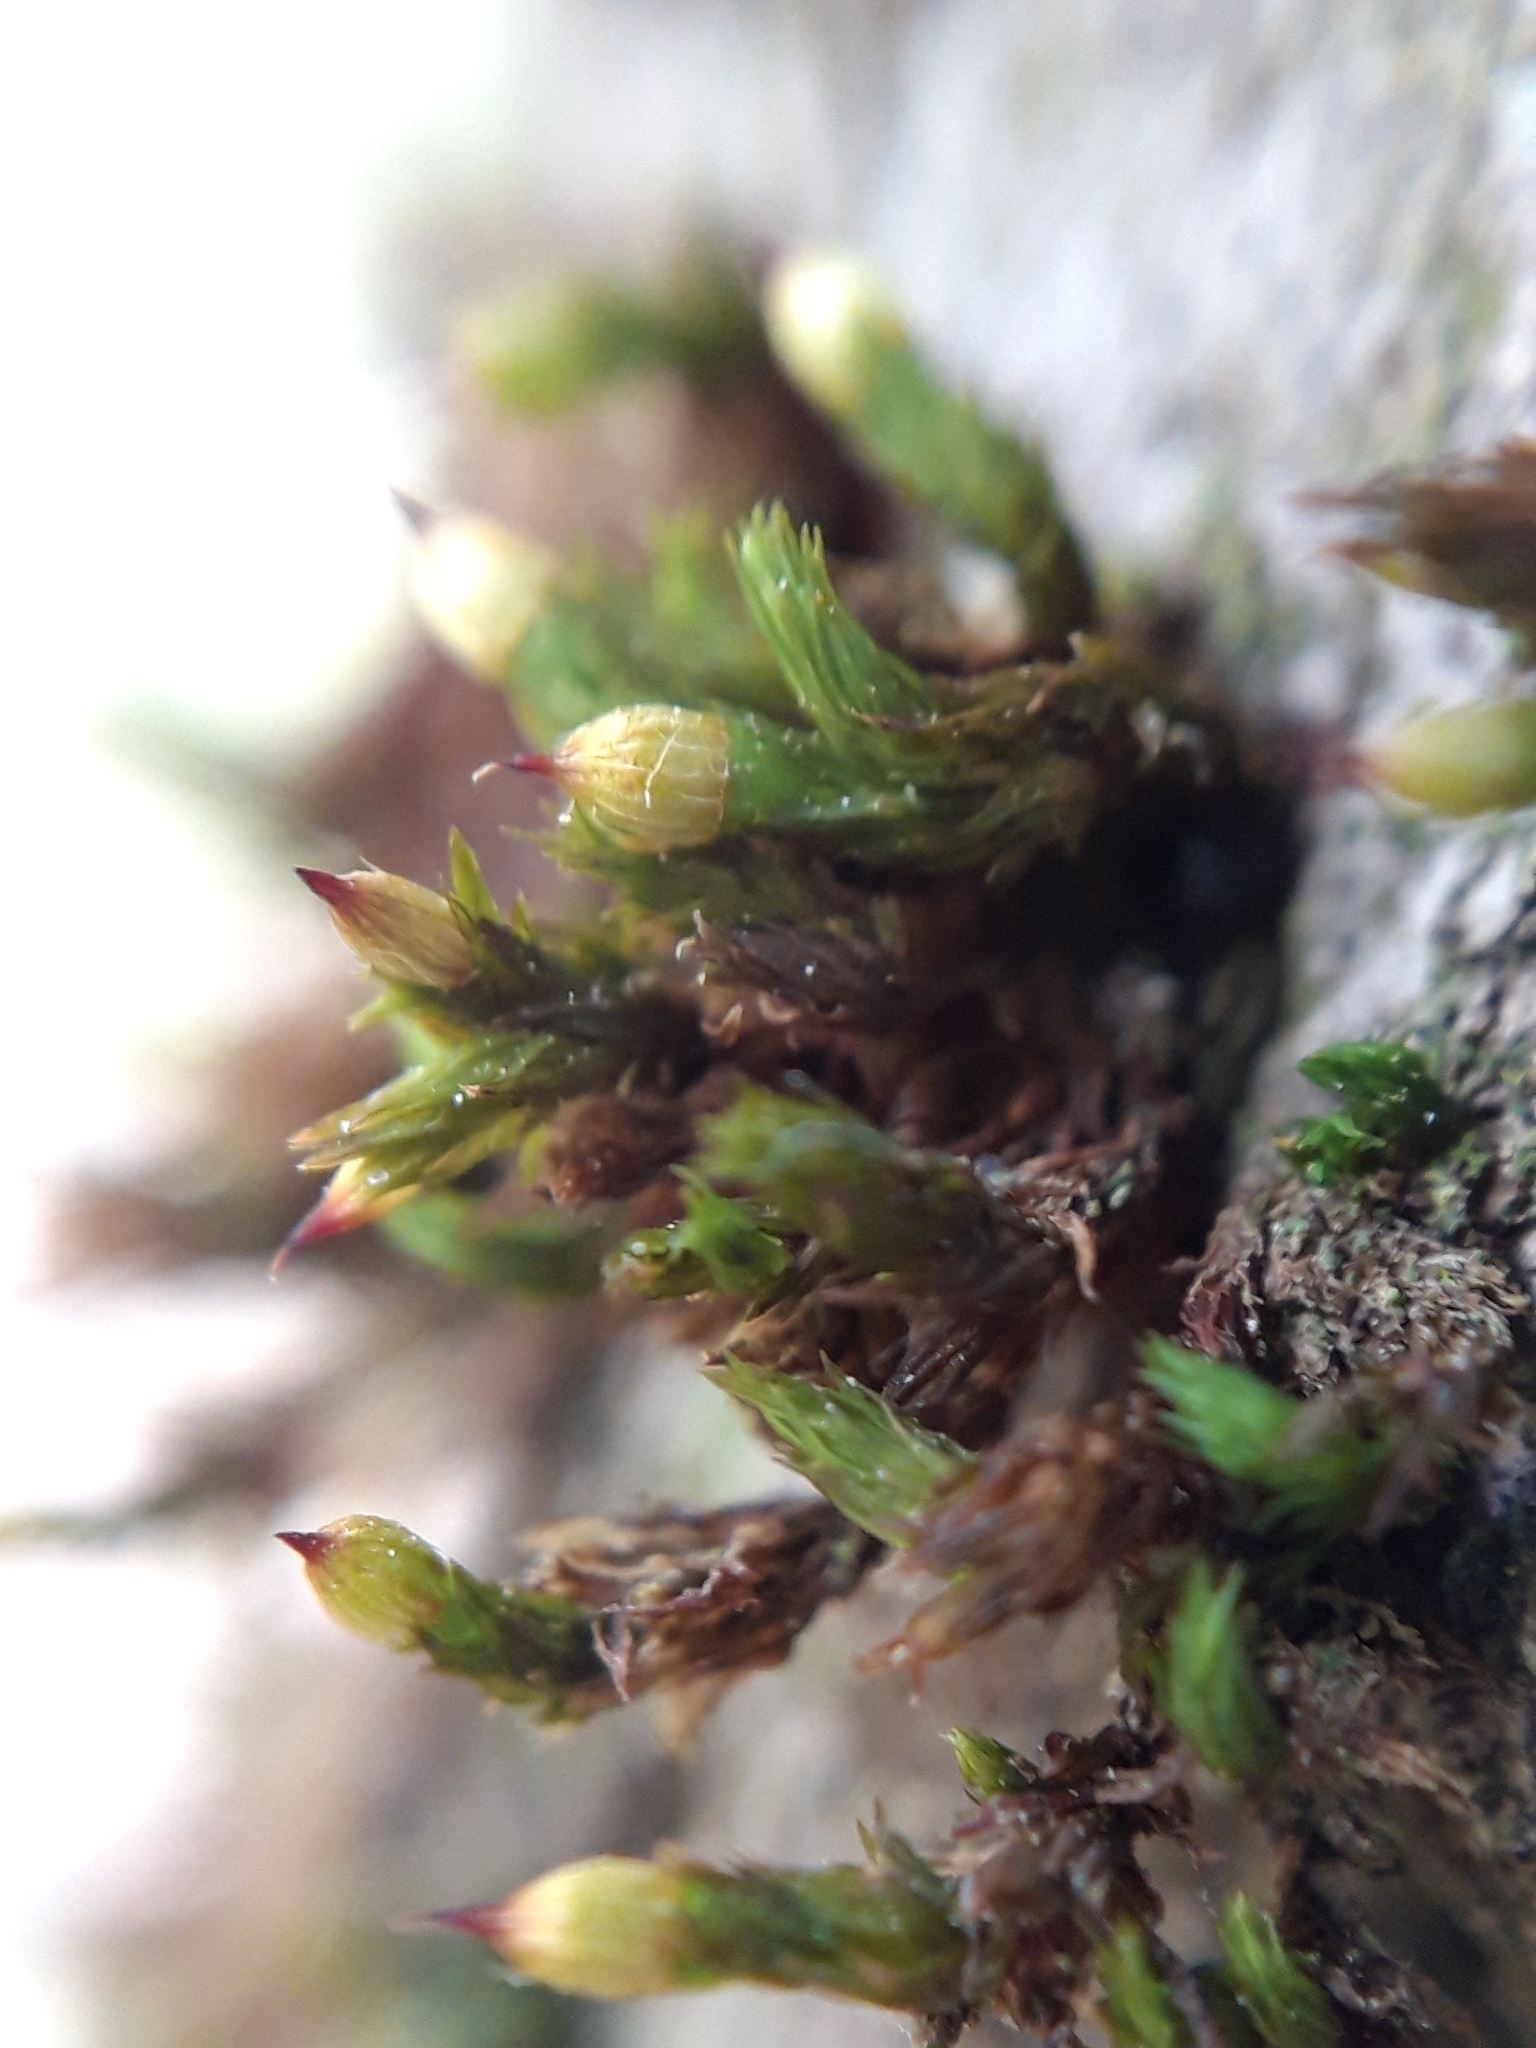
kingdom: Plantae
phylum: Bryophyta
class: Bryopsida
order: Orthotrichales
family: Orthotrichaceae
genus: Orthotrichum
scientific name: Orthotrichum stramineum
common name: Straw bristle-moss
